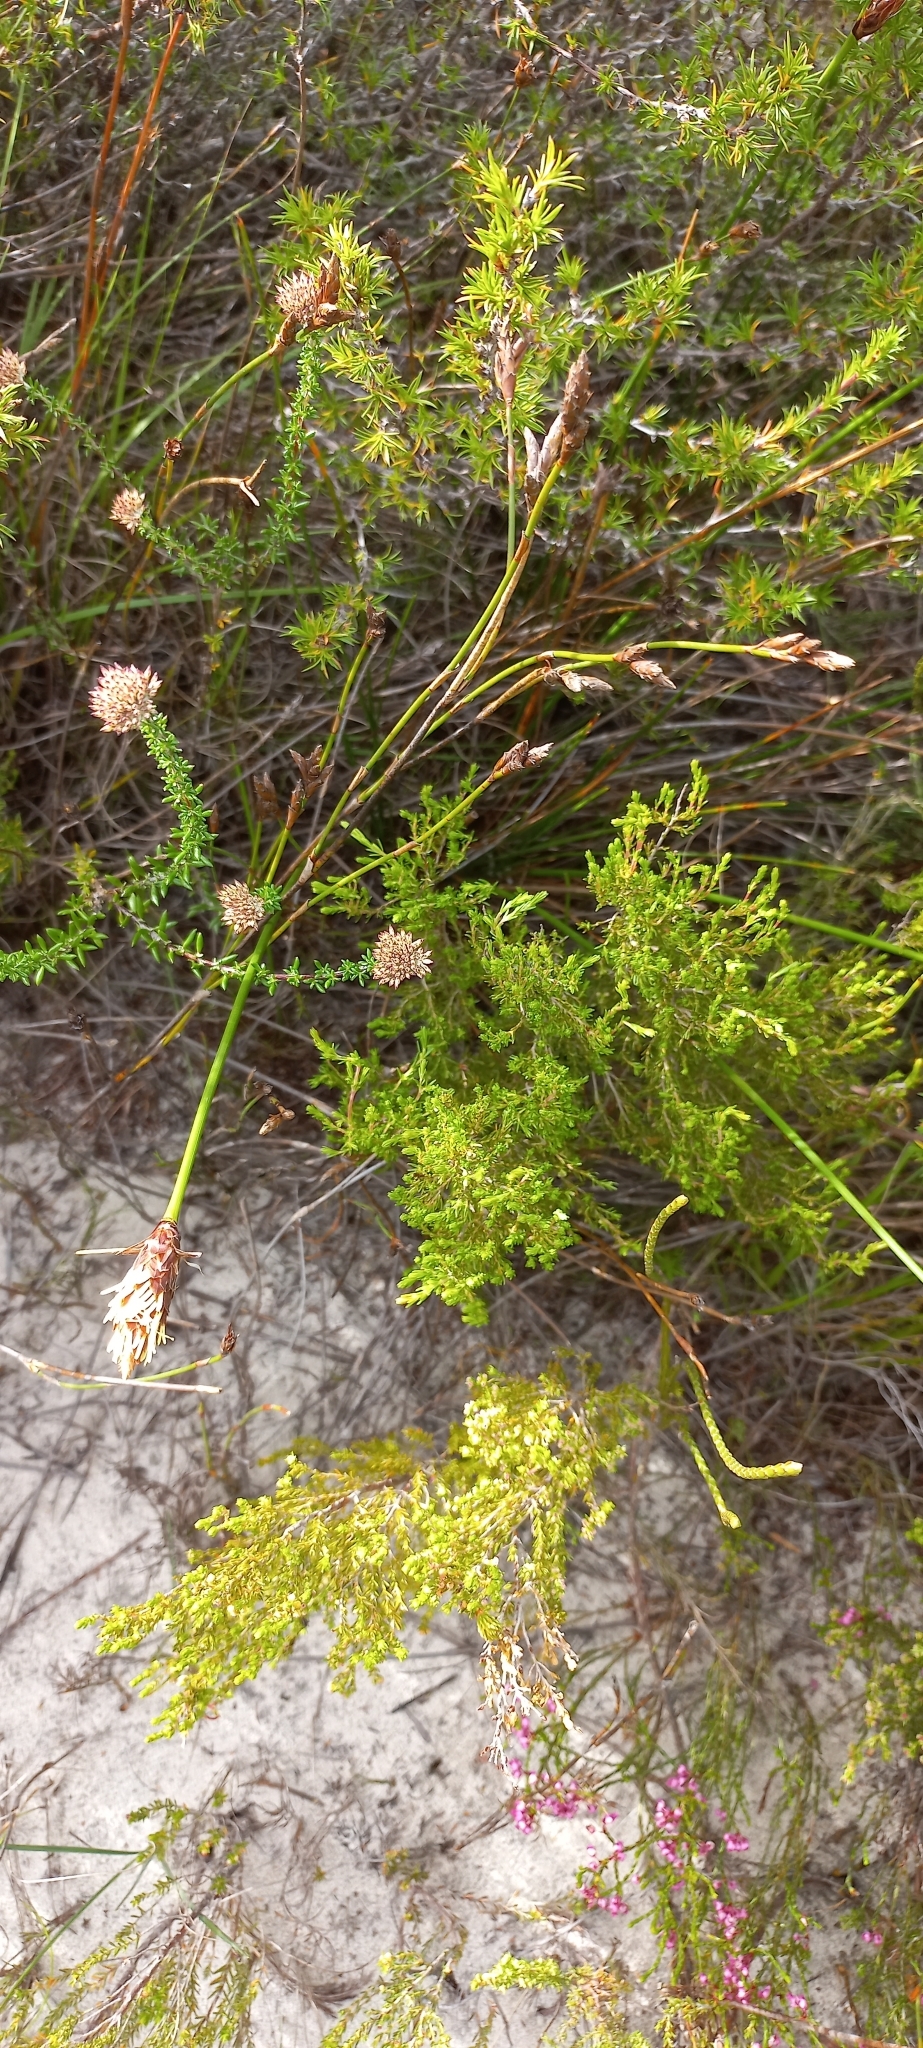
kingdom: Plantae
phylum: Tracheophyta
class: Liliopsida
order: Poales
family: Cyperaceae
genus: Ficinia
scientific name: Ficinia deusta
